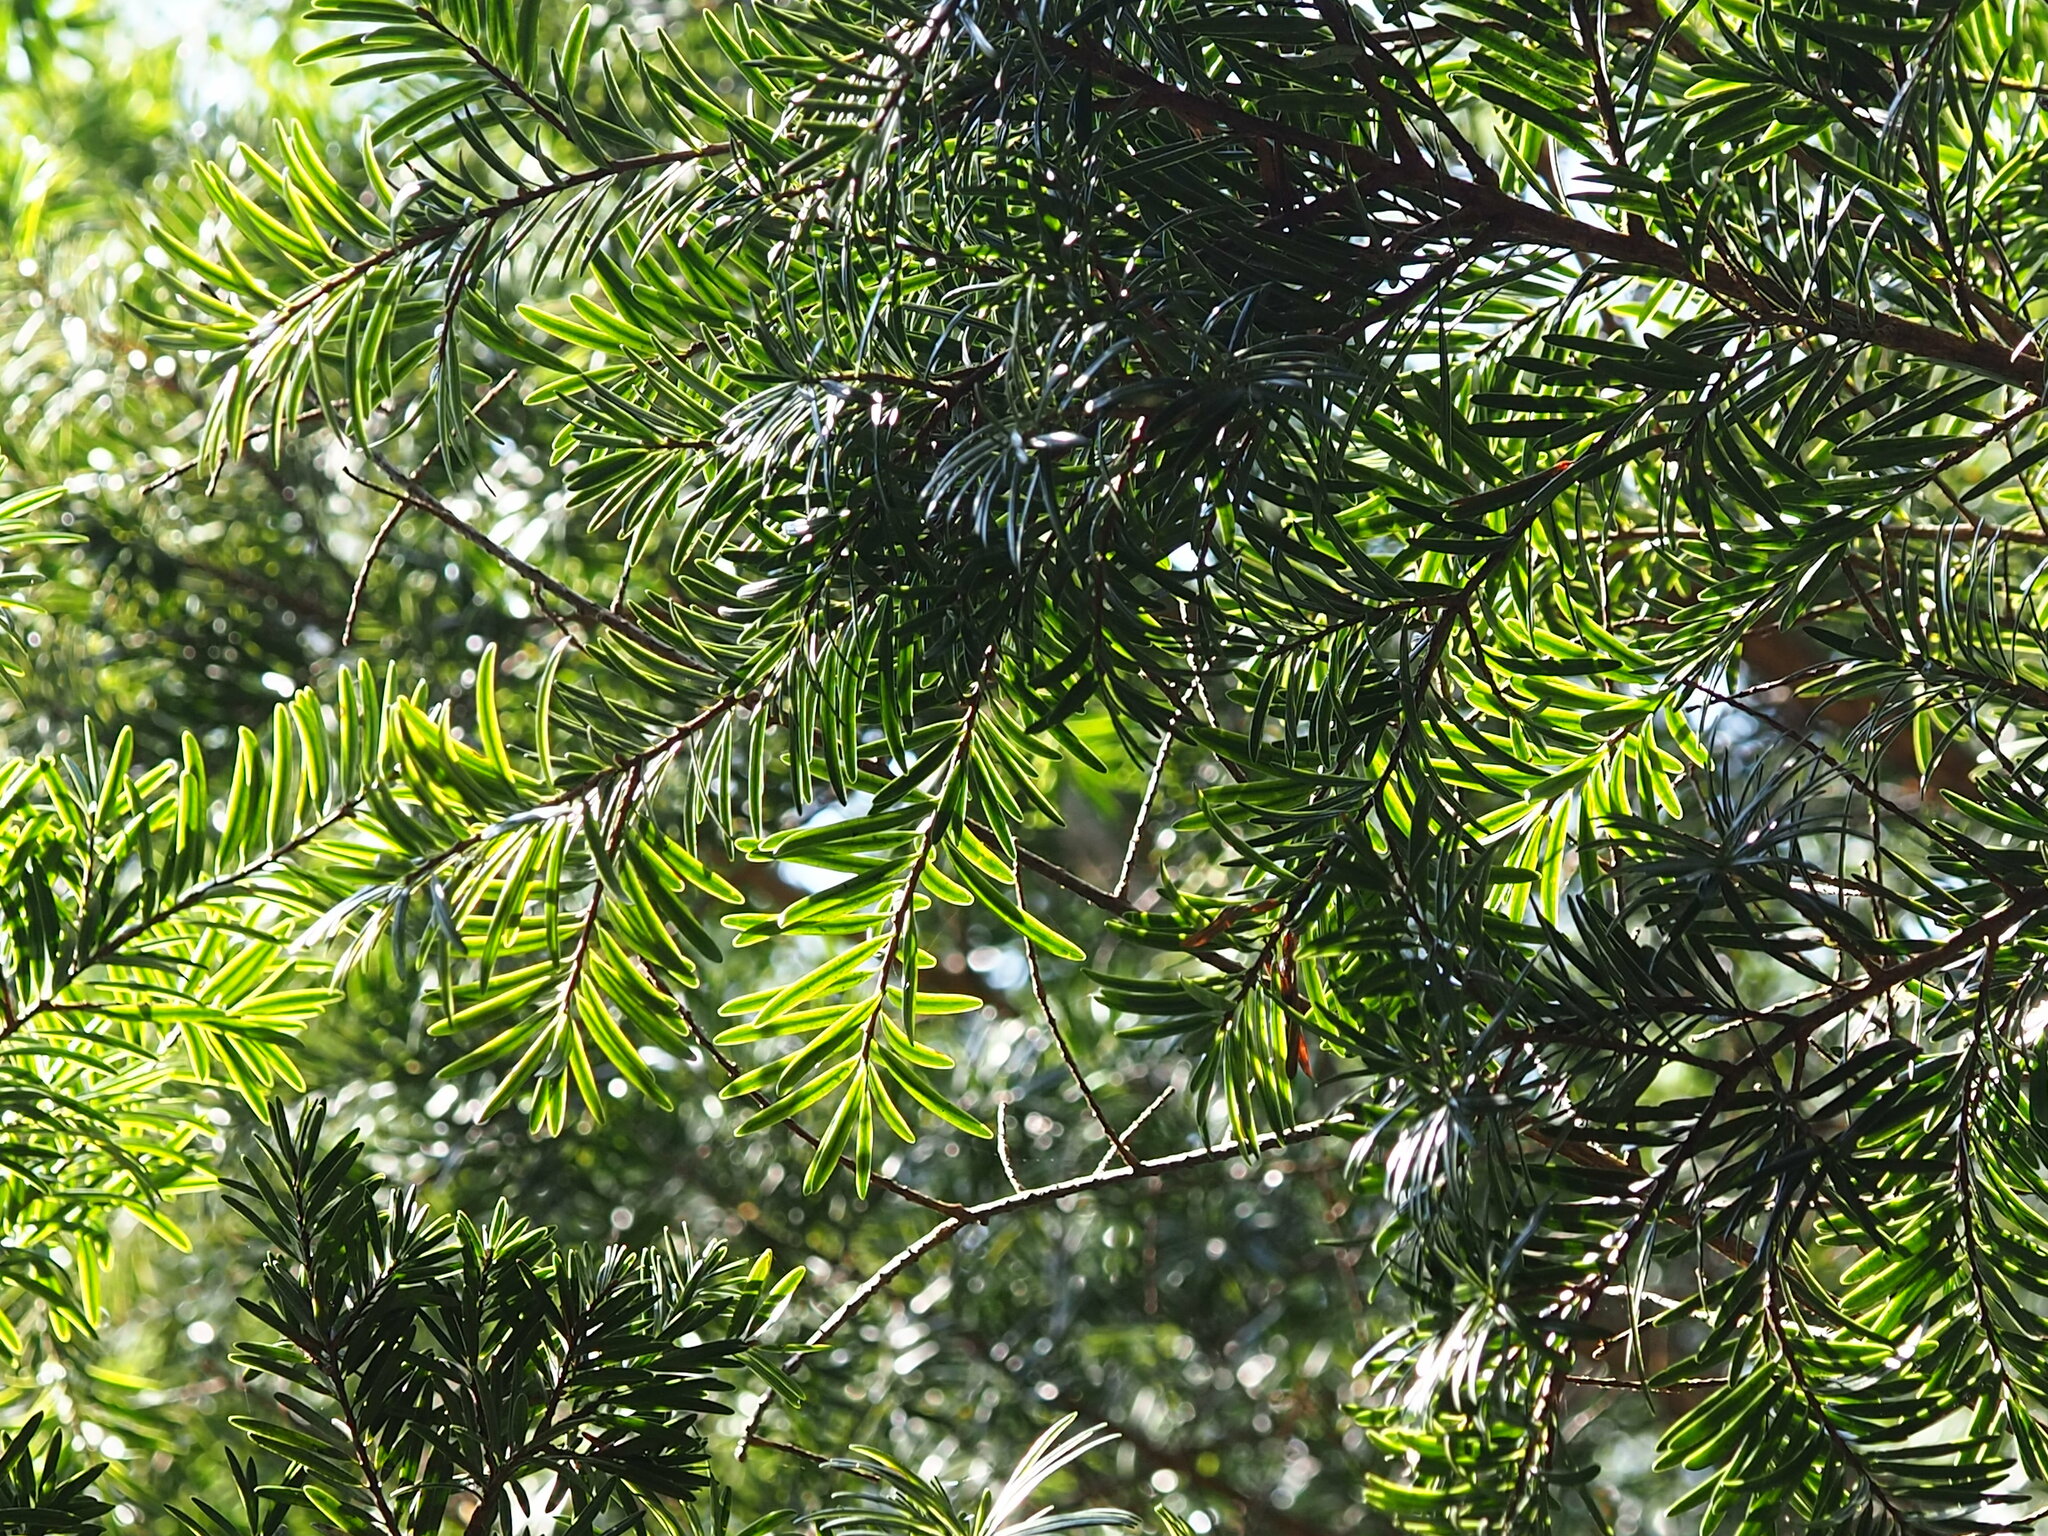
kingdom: Plantae
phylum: Tracheophyta
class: Pinopsida
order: Pinales
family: Pinaceae
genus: Keteleeria
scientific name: Keteleeria davidiana
